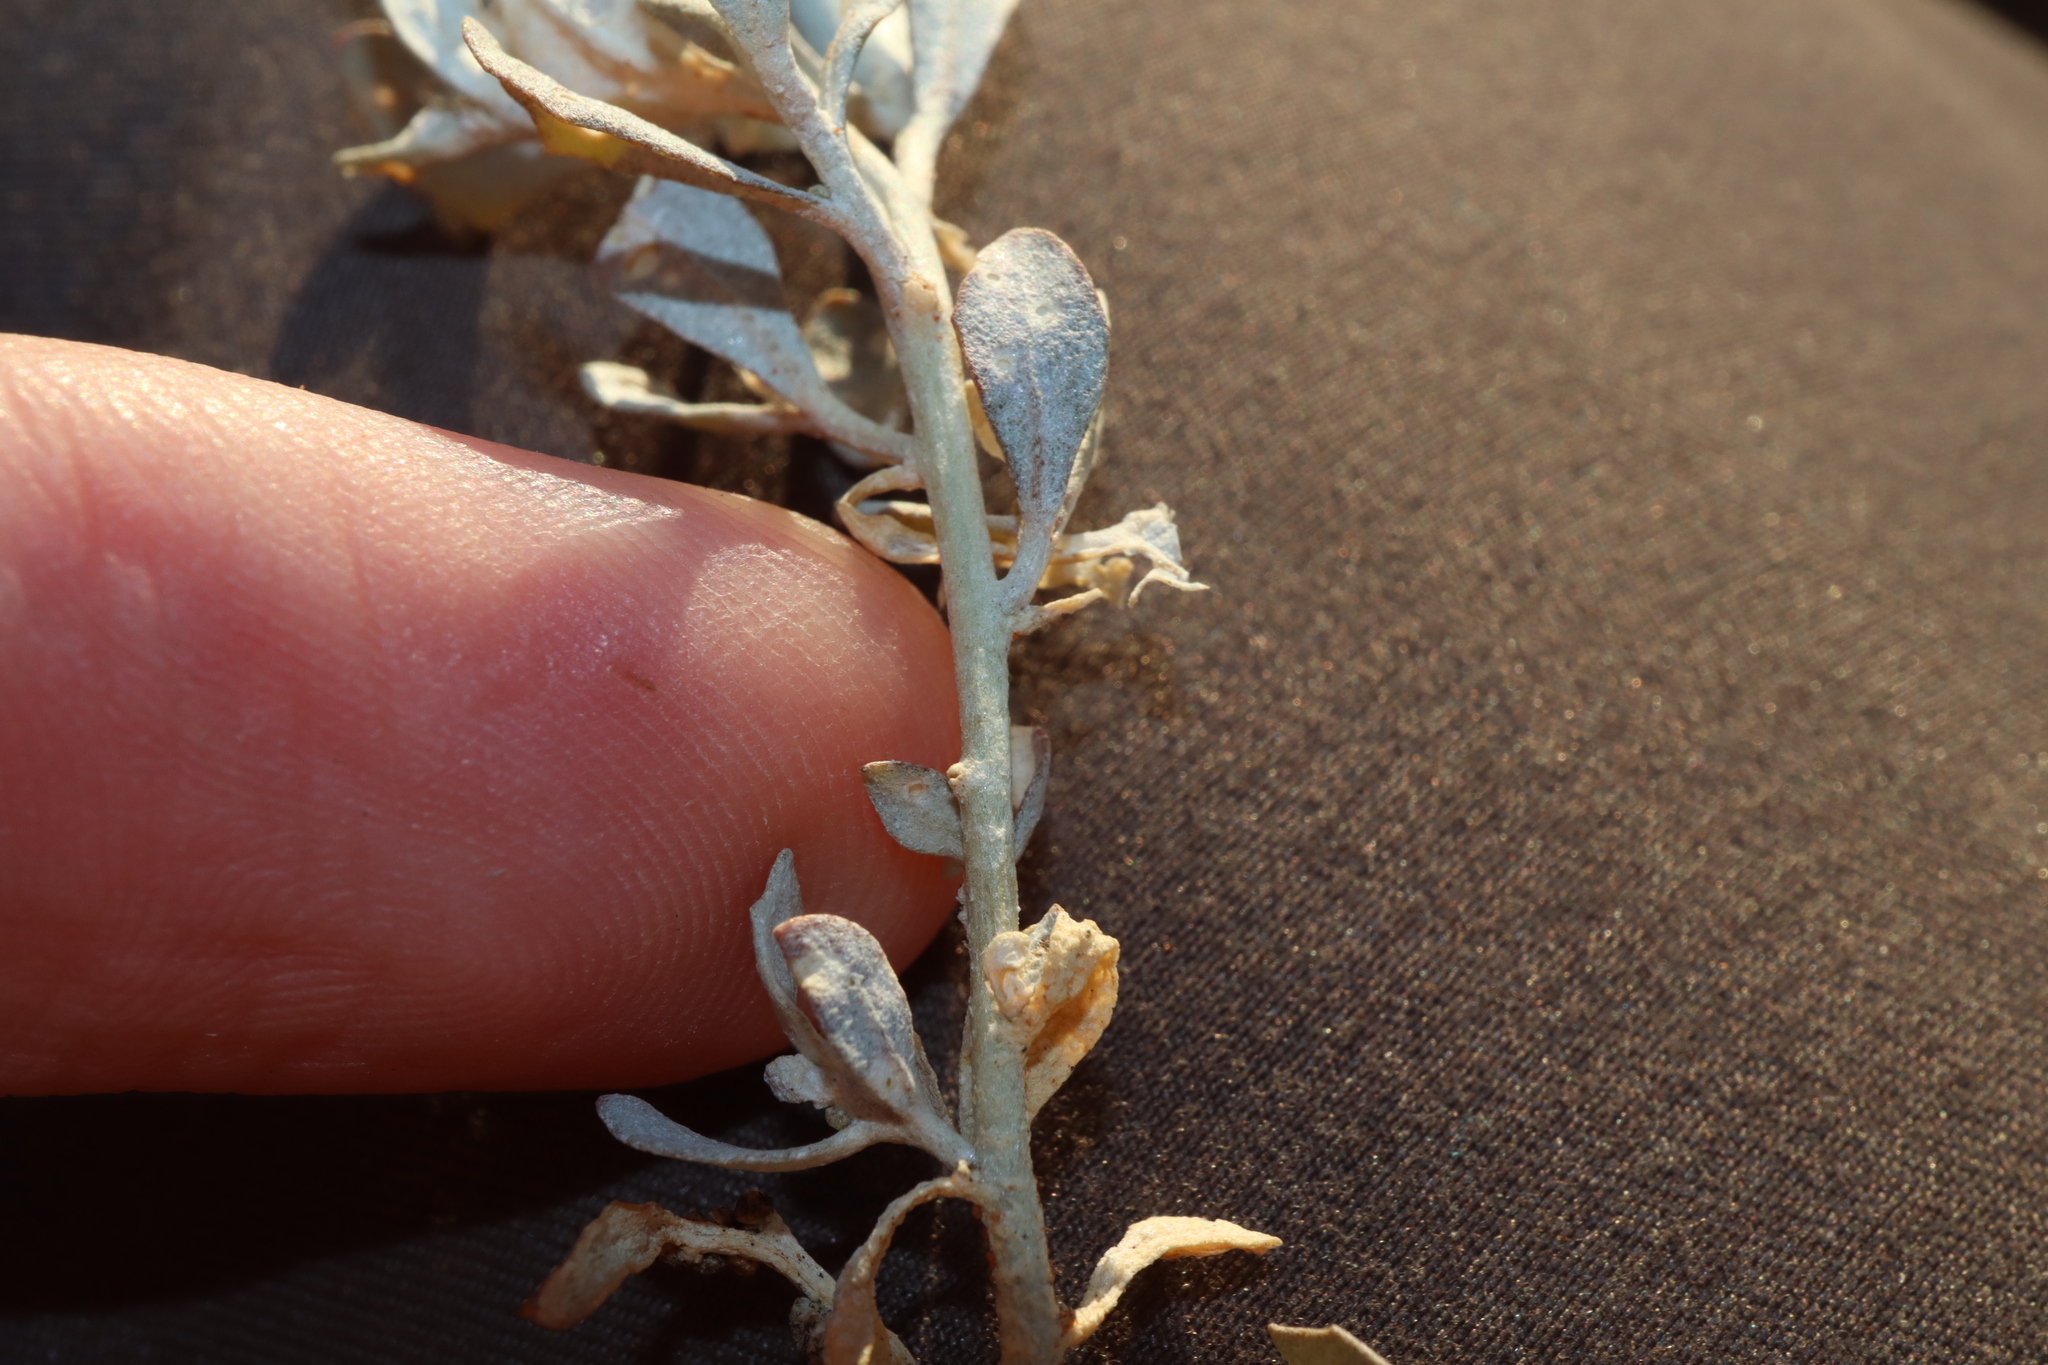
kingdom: Plantae
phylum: Tracheophyta
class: Magnoliopsida
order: Caryophyllales
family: Amaranthaceae
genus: Atriplex
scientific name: Atriplex angulata
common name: Fan saltbush
